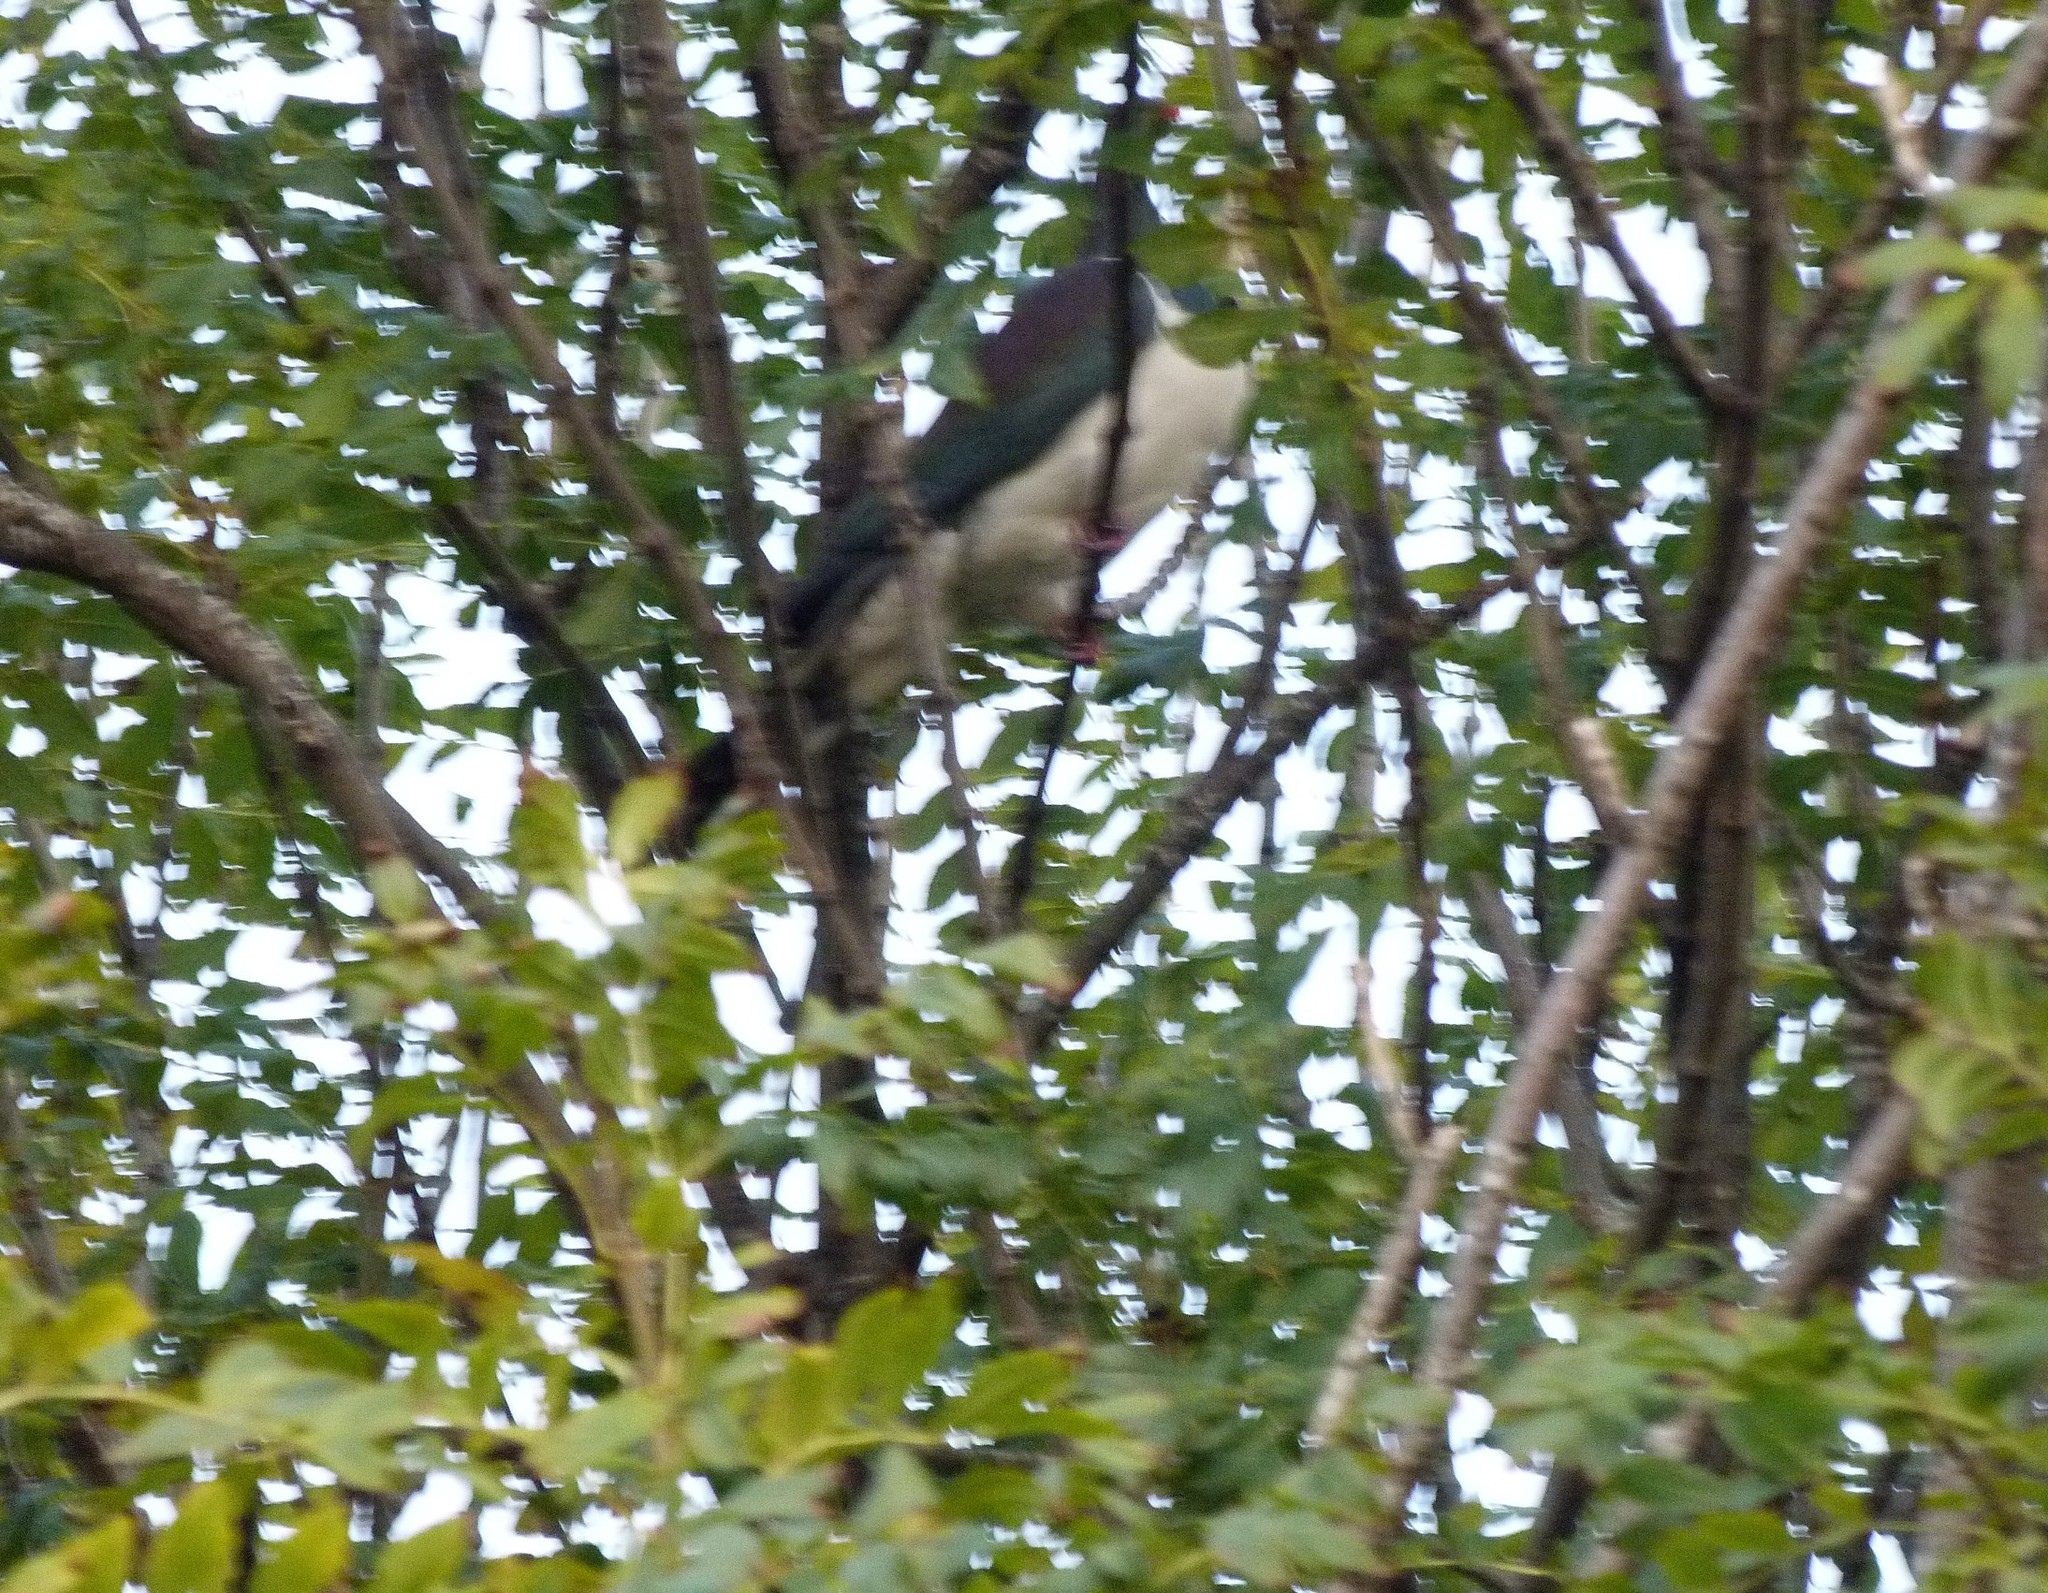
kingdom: Animalia
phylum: Chordata
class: Aves
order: Columbiformes
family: Columbidae
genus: Hemiphaga
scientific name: Hemiphaga novaeseelandiae
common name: New zealand pigeon
